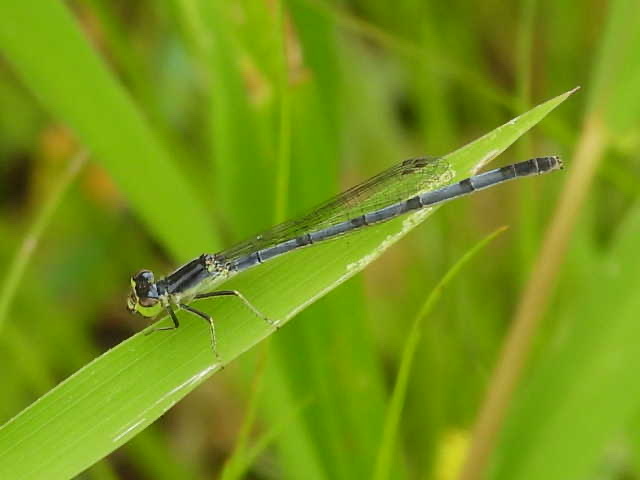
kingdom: Animalia
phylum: Arthropoda
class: Insecta
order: Odonata
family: Coenagrionidae
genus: Ischnura
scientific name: Ischnura verticalis
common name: Eastern forktail
